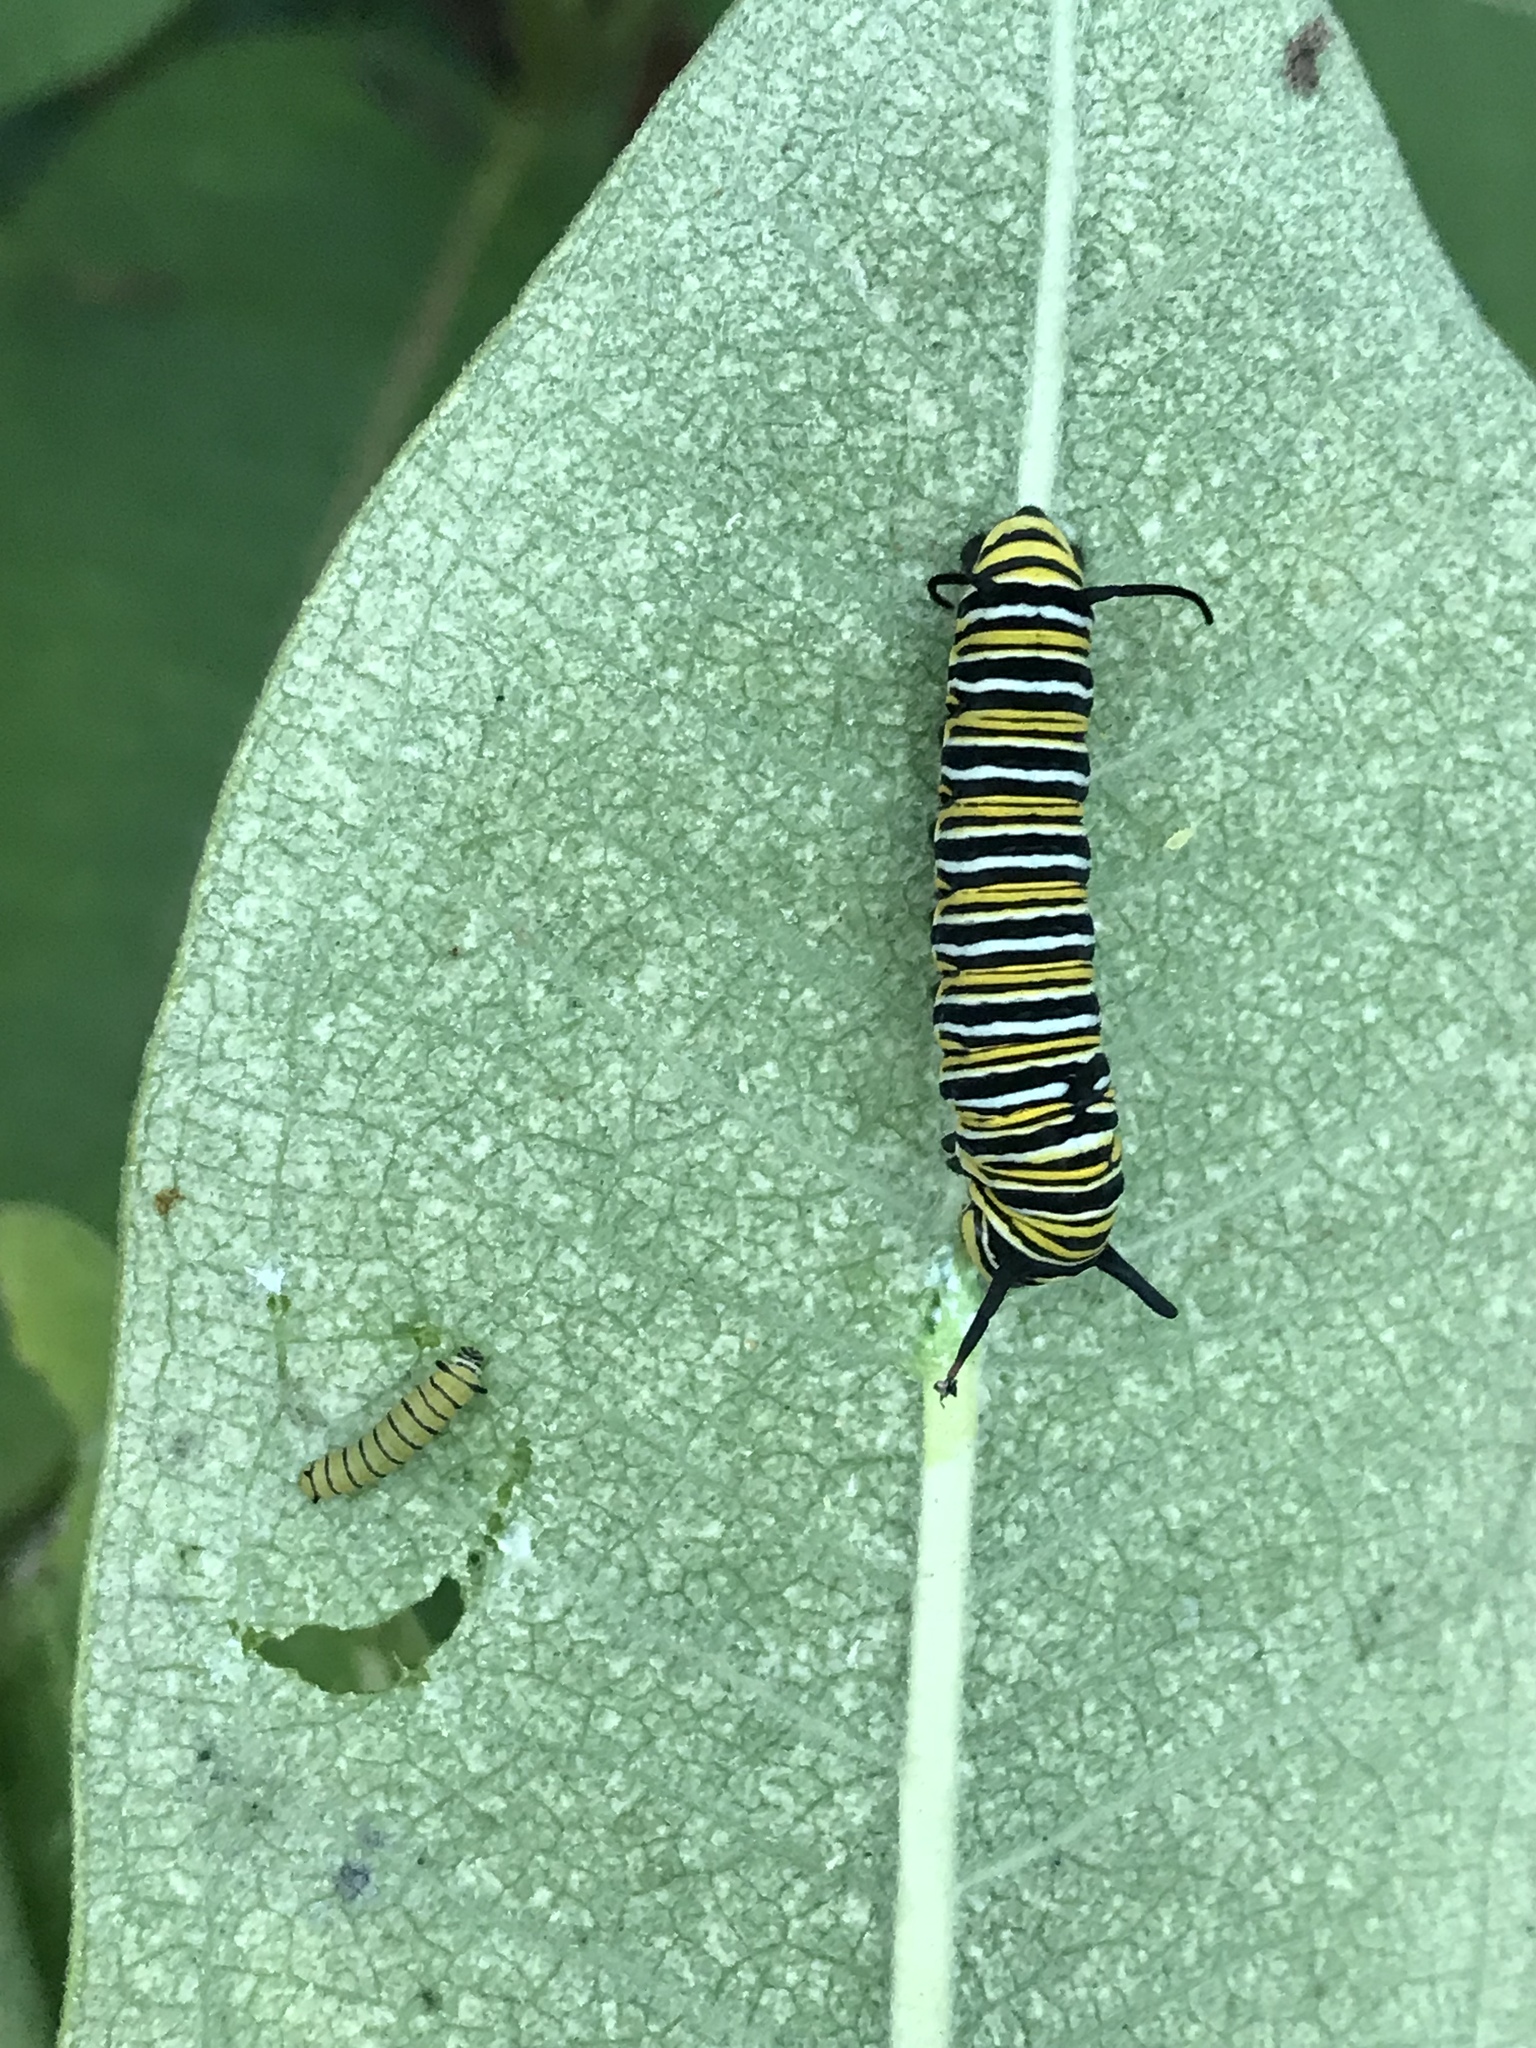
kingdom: Animalia
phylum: Arthropoda
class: Insecta
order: Lepidoptera
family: Nymphalidae
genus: Danaus
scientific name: Danaus plexippus
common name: Monarch
